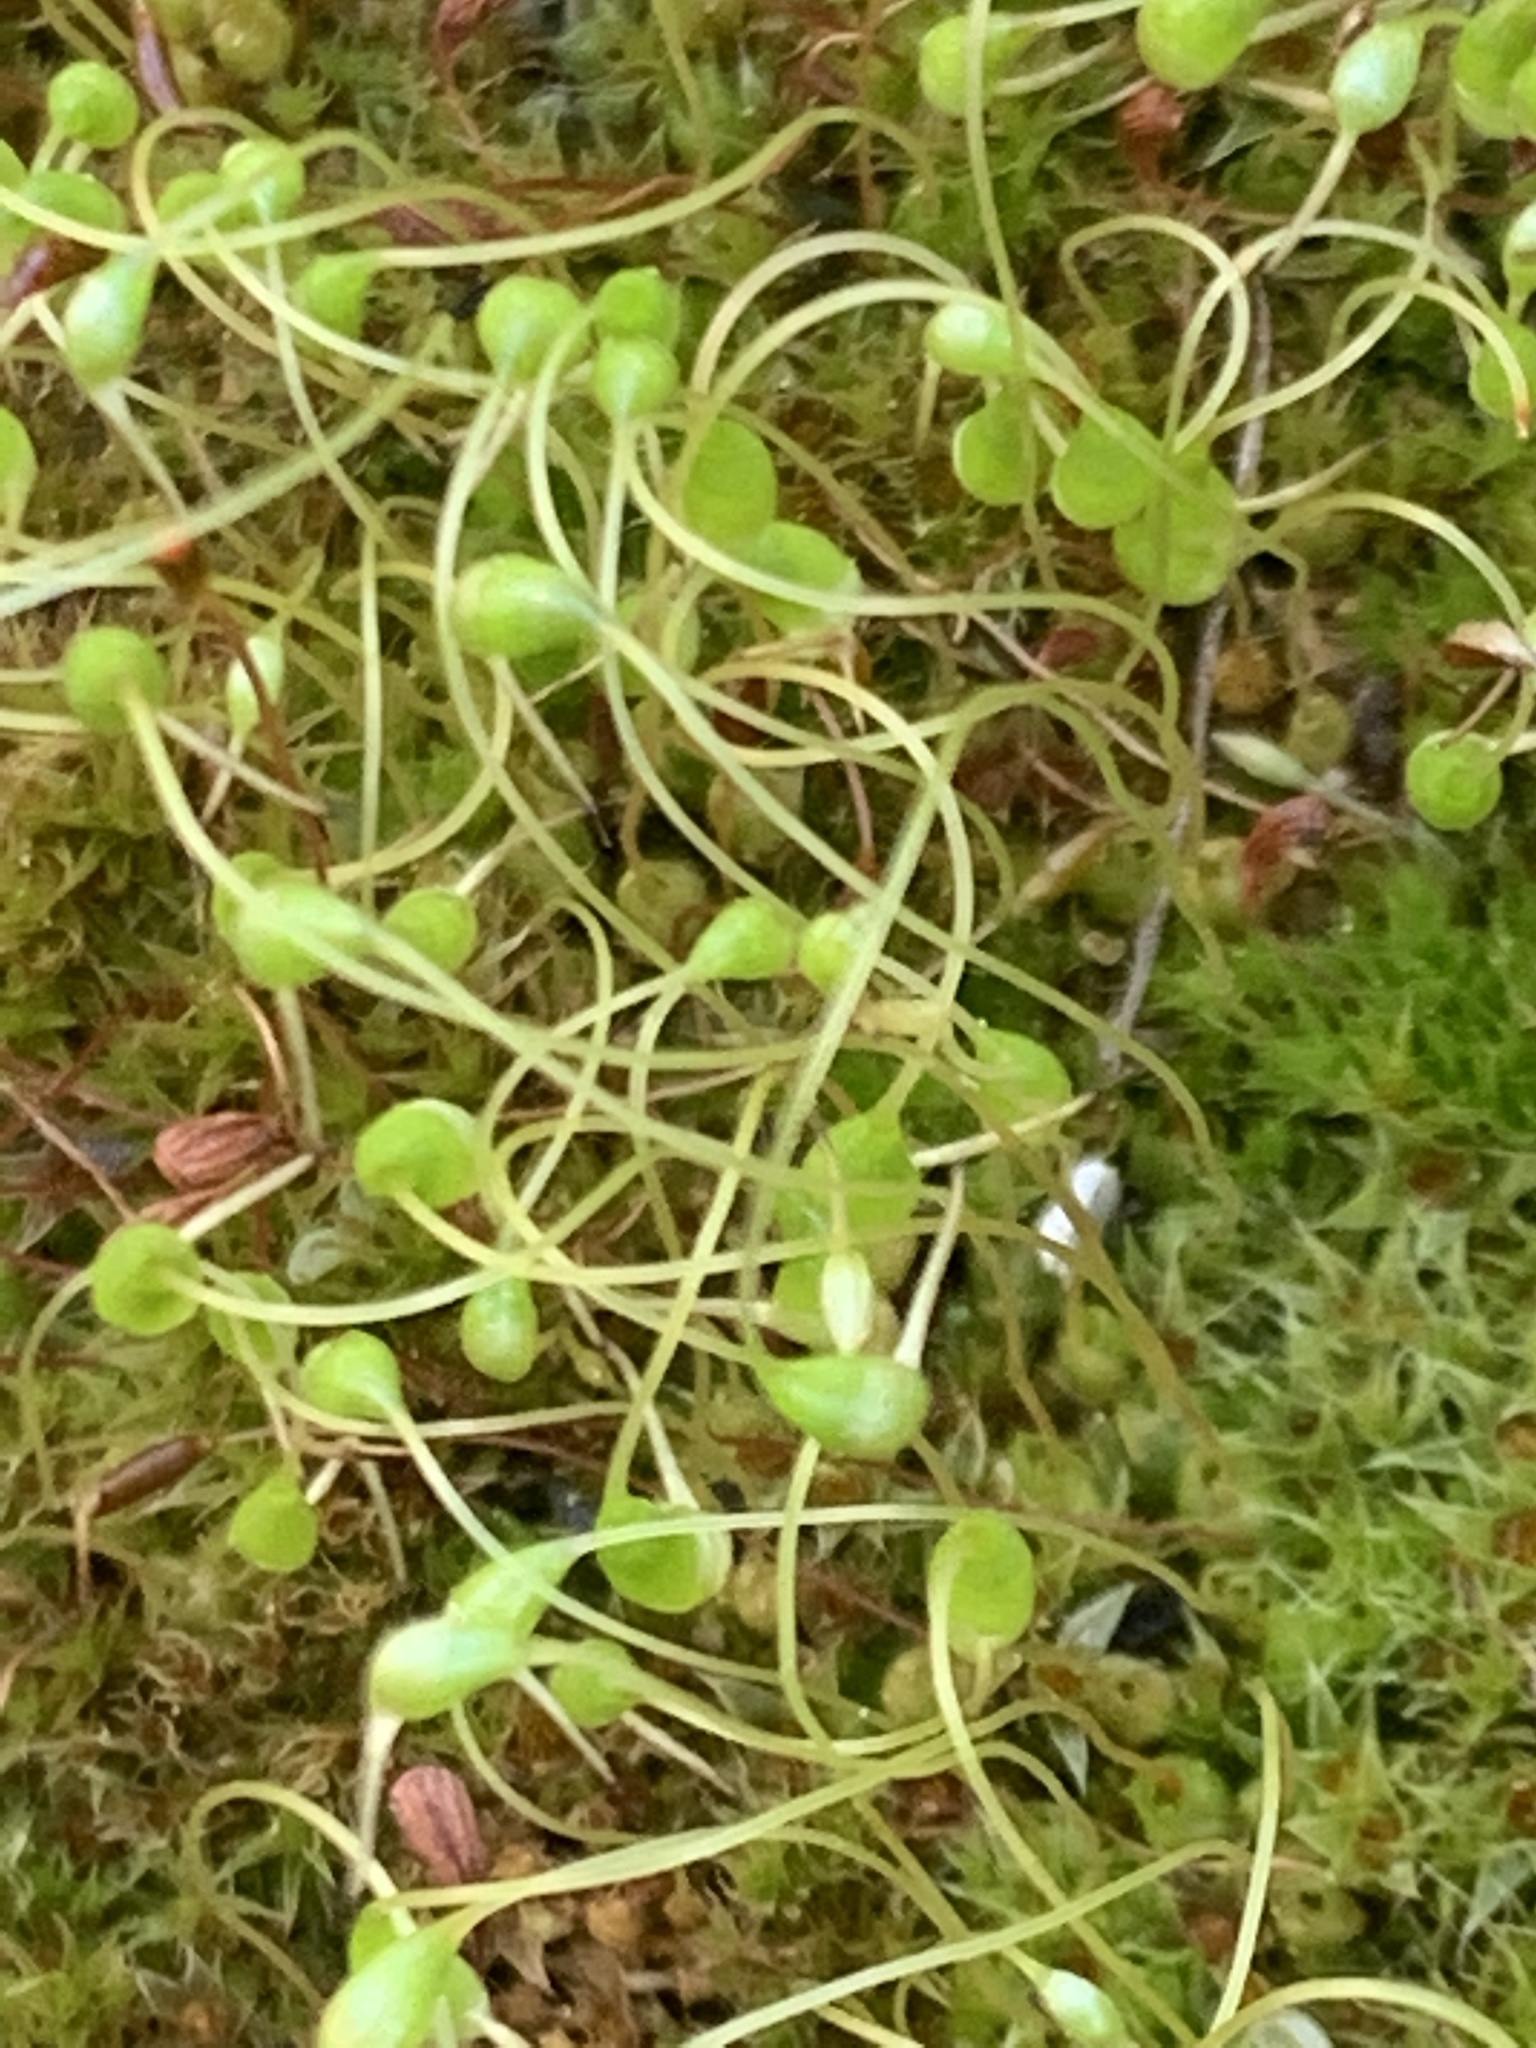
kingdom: Plantae
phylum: Bryophyta
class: Bryopsida
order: Funariales
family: Funariaceae
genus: Funaria
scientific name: Funaria hygrometrica
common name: Common cord moss
